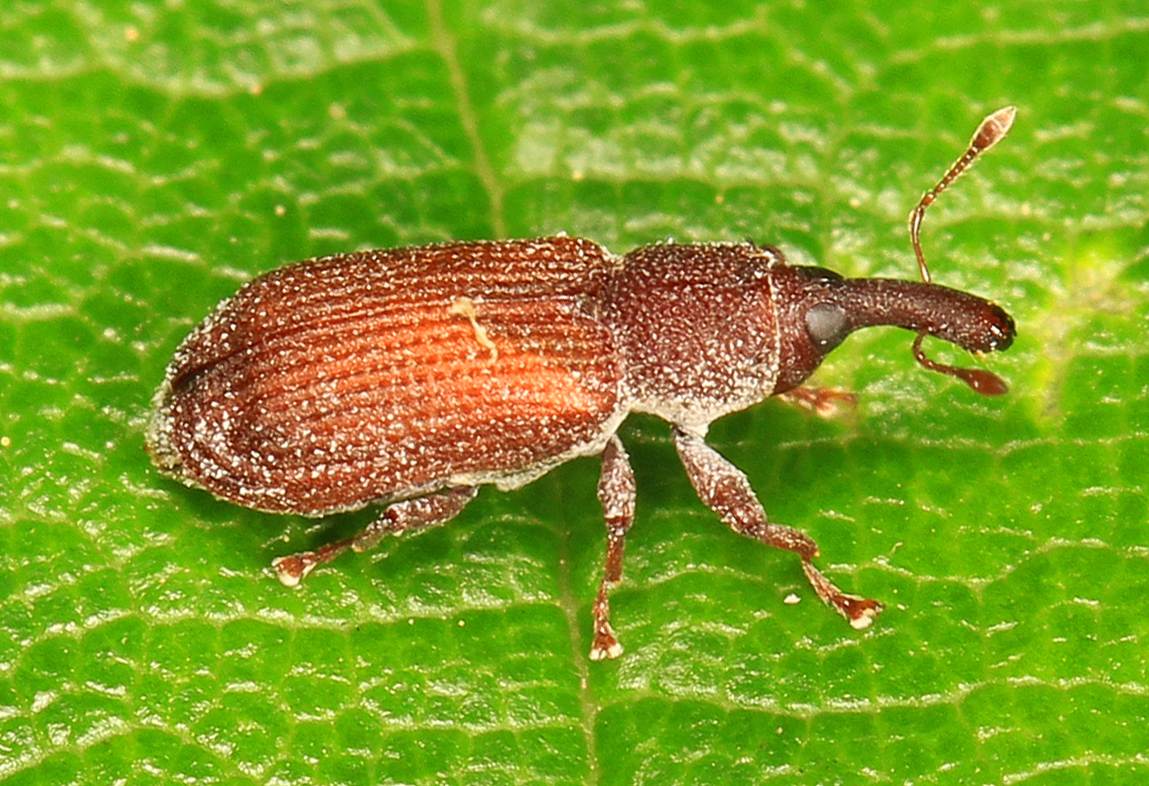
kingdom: Animalia
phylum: Arthropoda
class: Insecta
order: Coleoptera
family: Curculionidae
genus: Magdalis
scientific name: Magdalis armicollis
